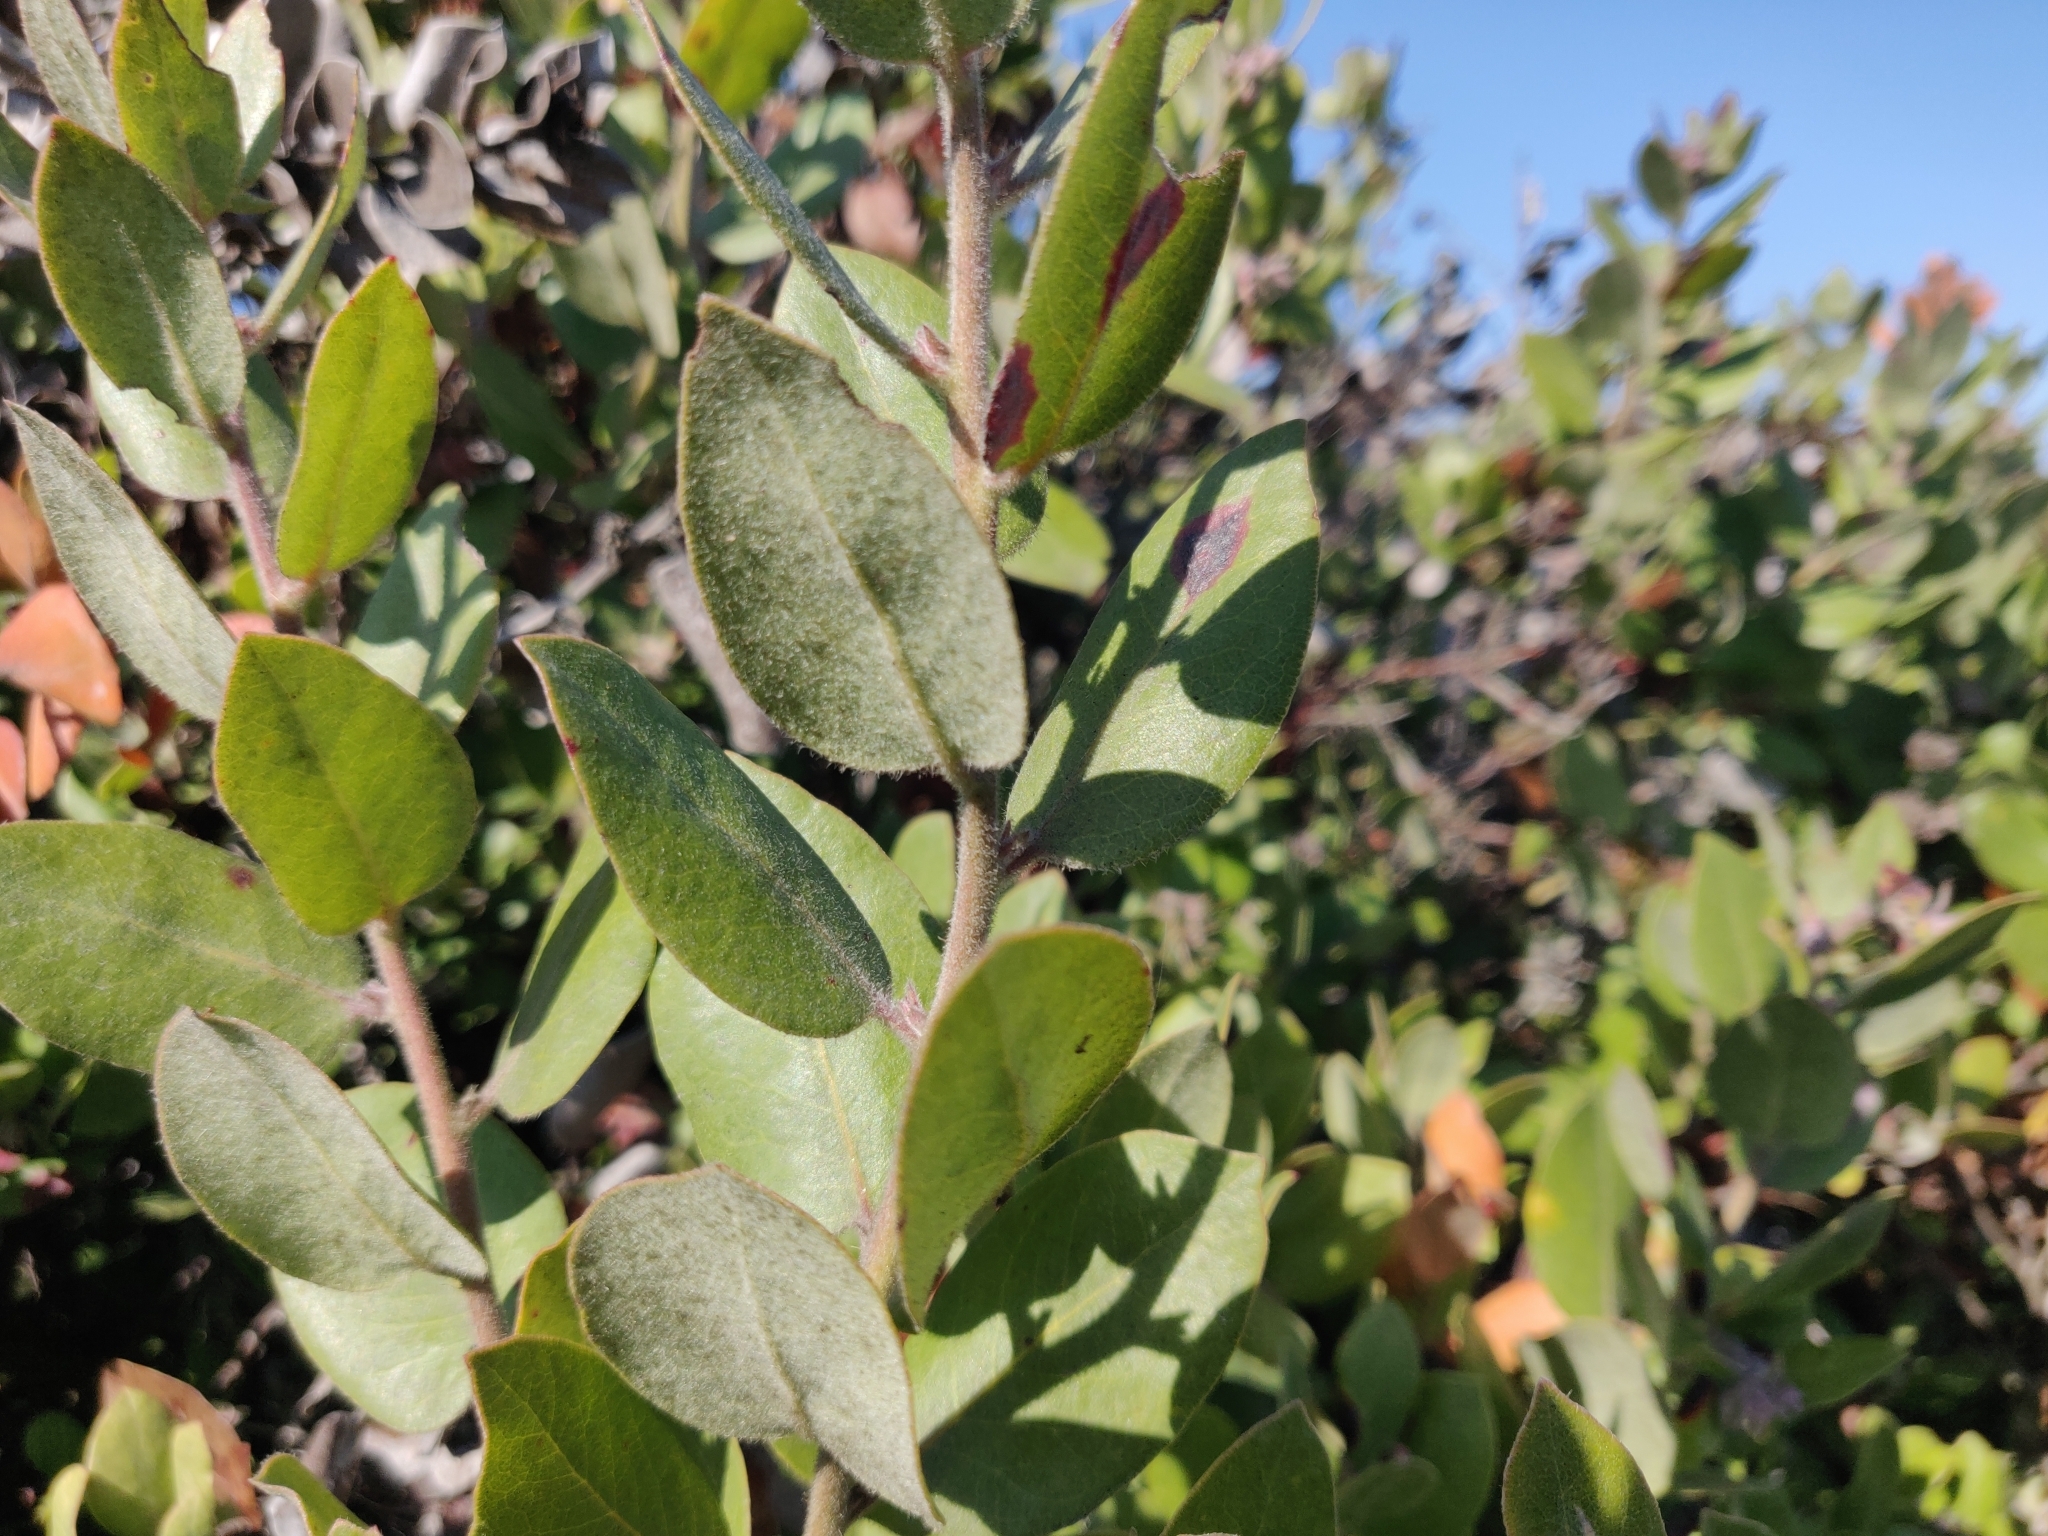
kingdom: Plantae
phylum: Tracheophyta
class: Magnoliopsida
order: Ericales
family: Ericaceae
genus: Arctostaphylos
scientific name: Arctostaphylos tomentosa
